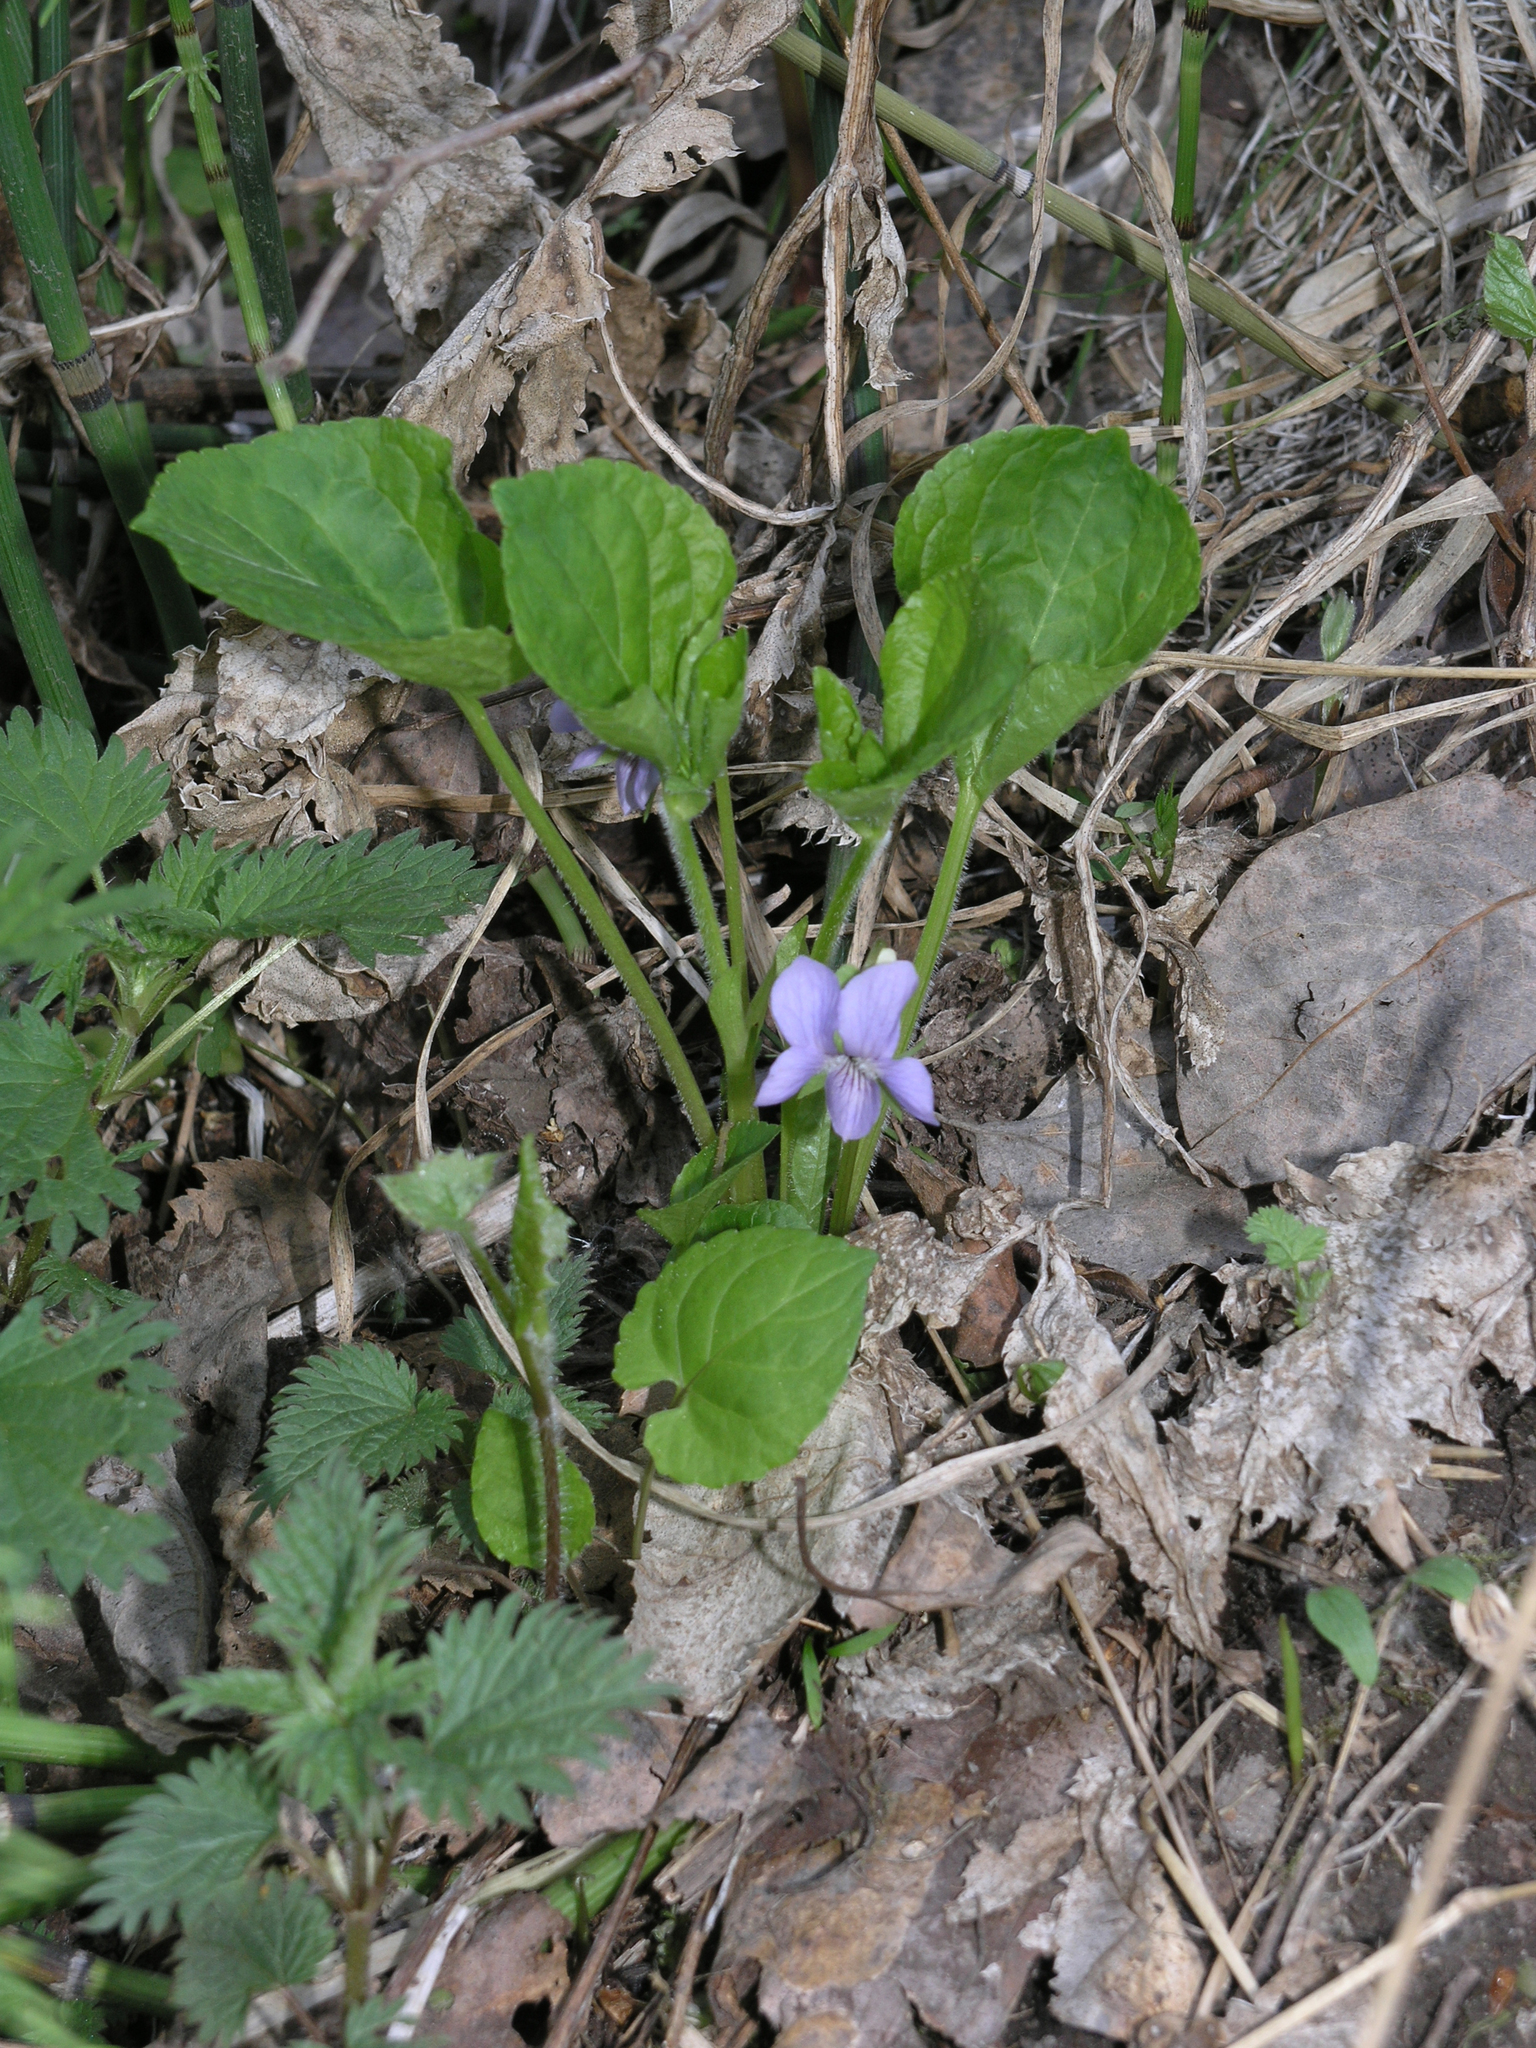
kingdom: Plantae
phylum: Tracheophyta
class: Magnoliopsida
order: Malpighiales
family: Violaceae
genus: Viola
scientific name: Viola mirabilis
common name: Wonder violet
